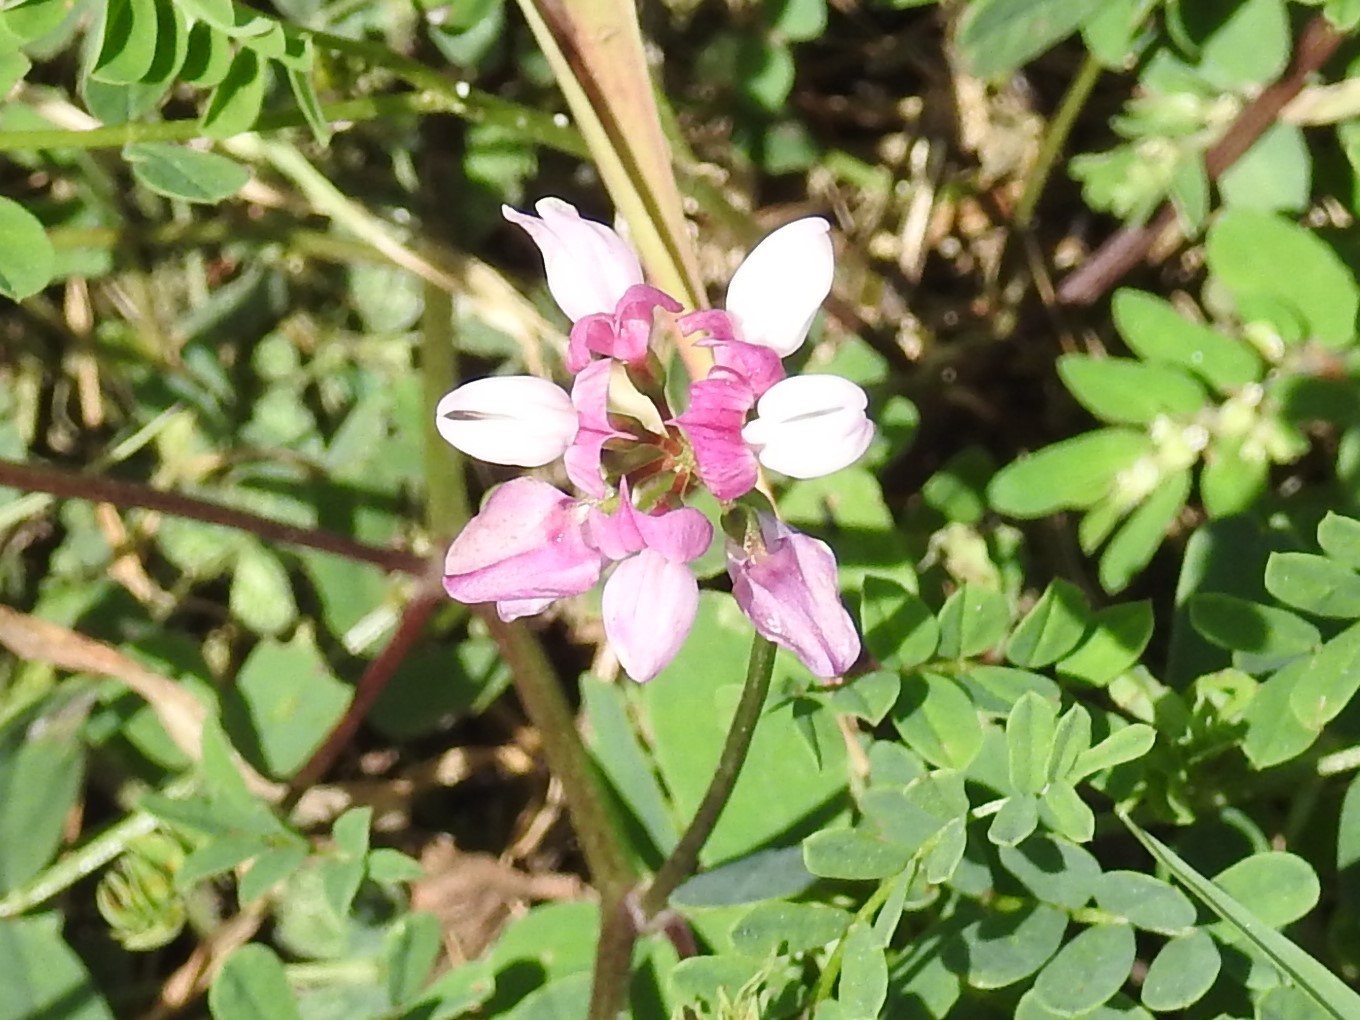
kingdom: Plantae
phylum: Tracheophyta
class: Magnoliopsida
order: Fabales
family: Fabaceae
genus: Coronilla
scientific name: Coronilla varia
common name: Crownvetch
